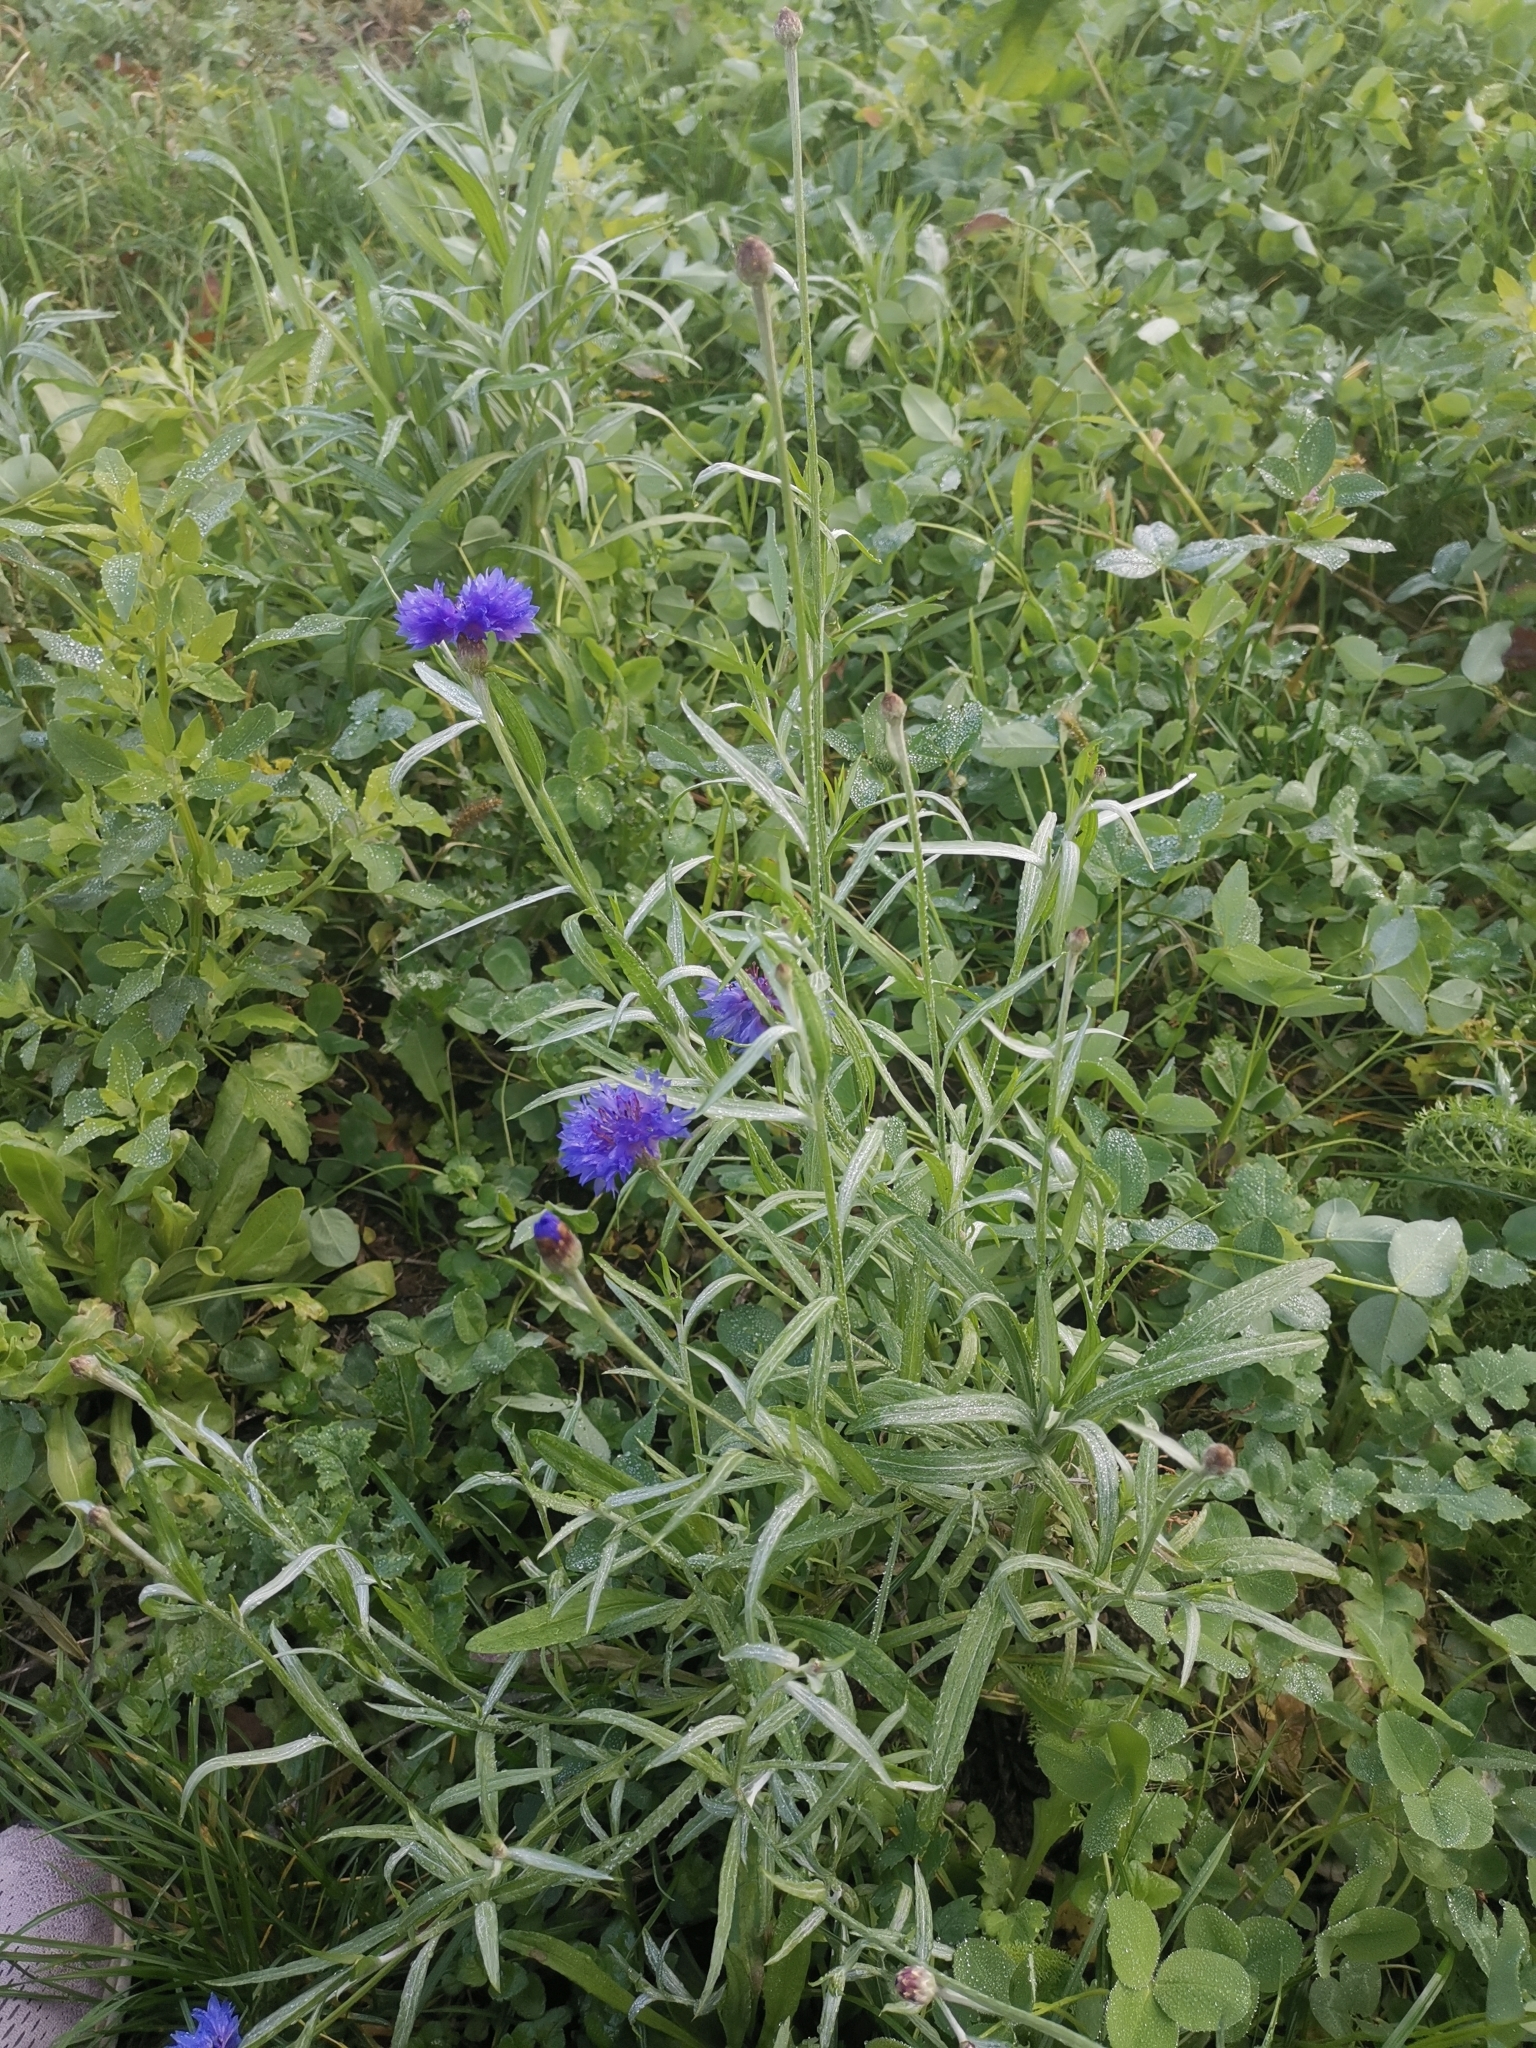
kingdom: Plantae
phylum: Tracheophyta
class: Magnoliopsida
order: Asterales
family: Asteraceae
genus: Centaurea
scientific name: Centaurea cyanus
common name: Cornflower
